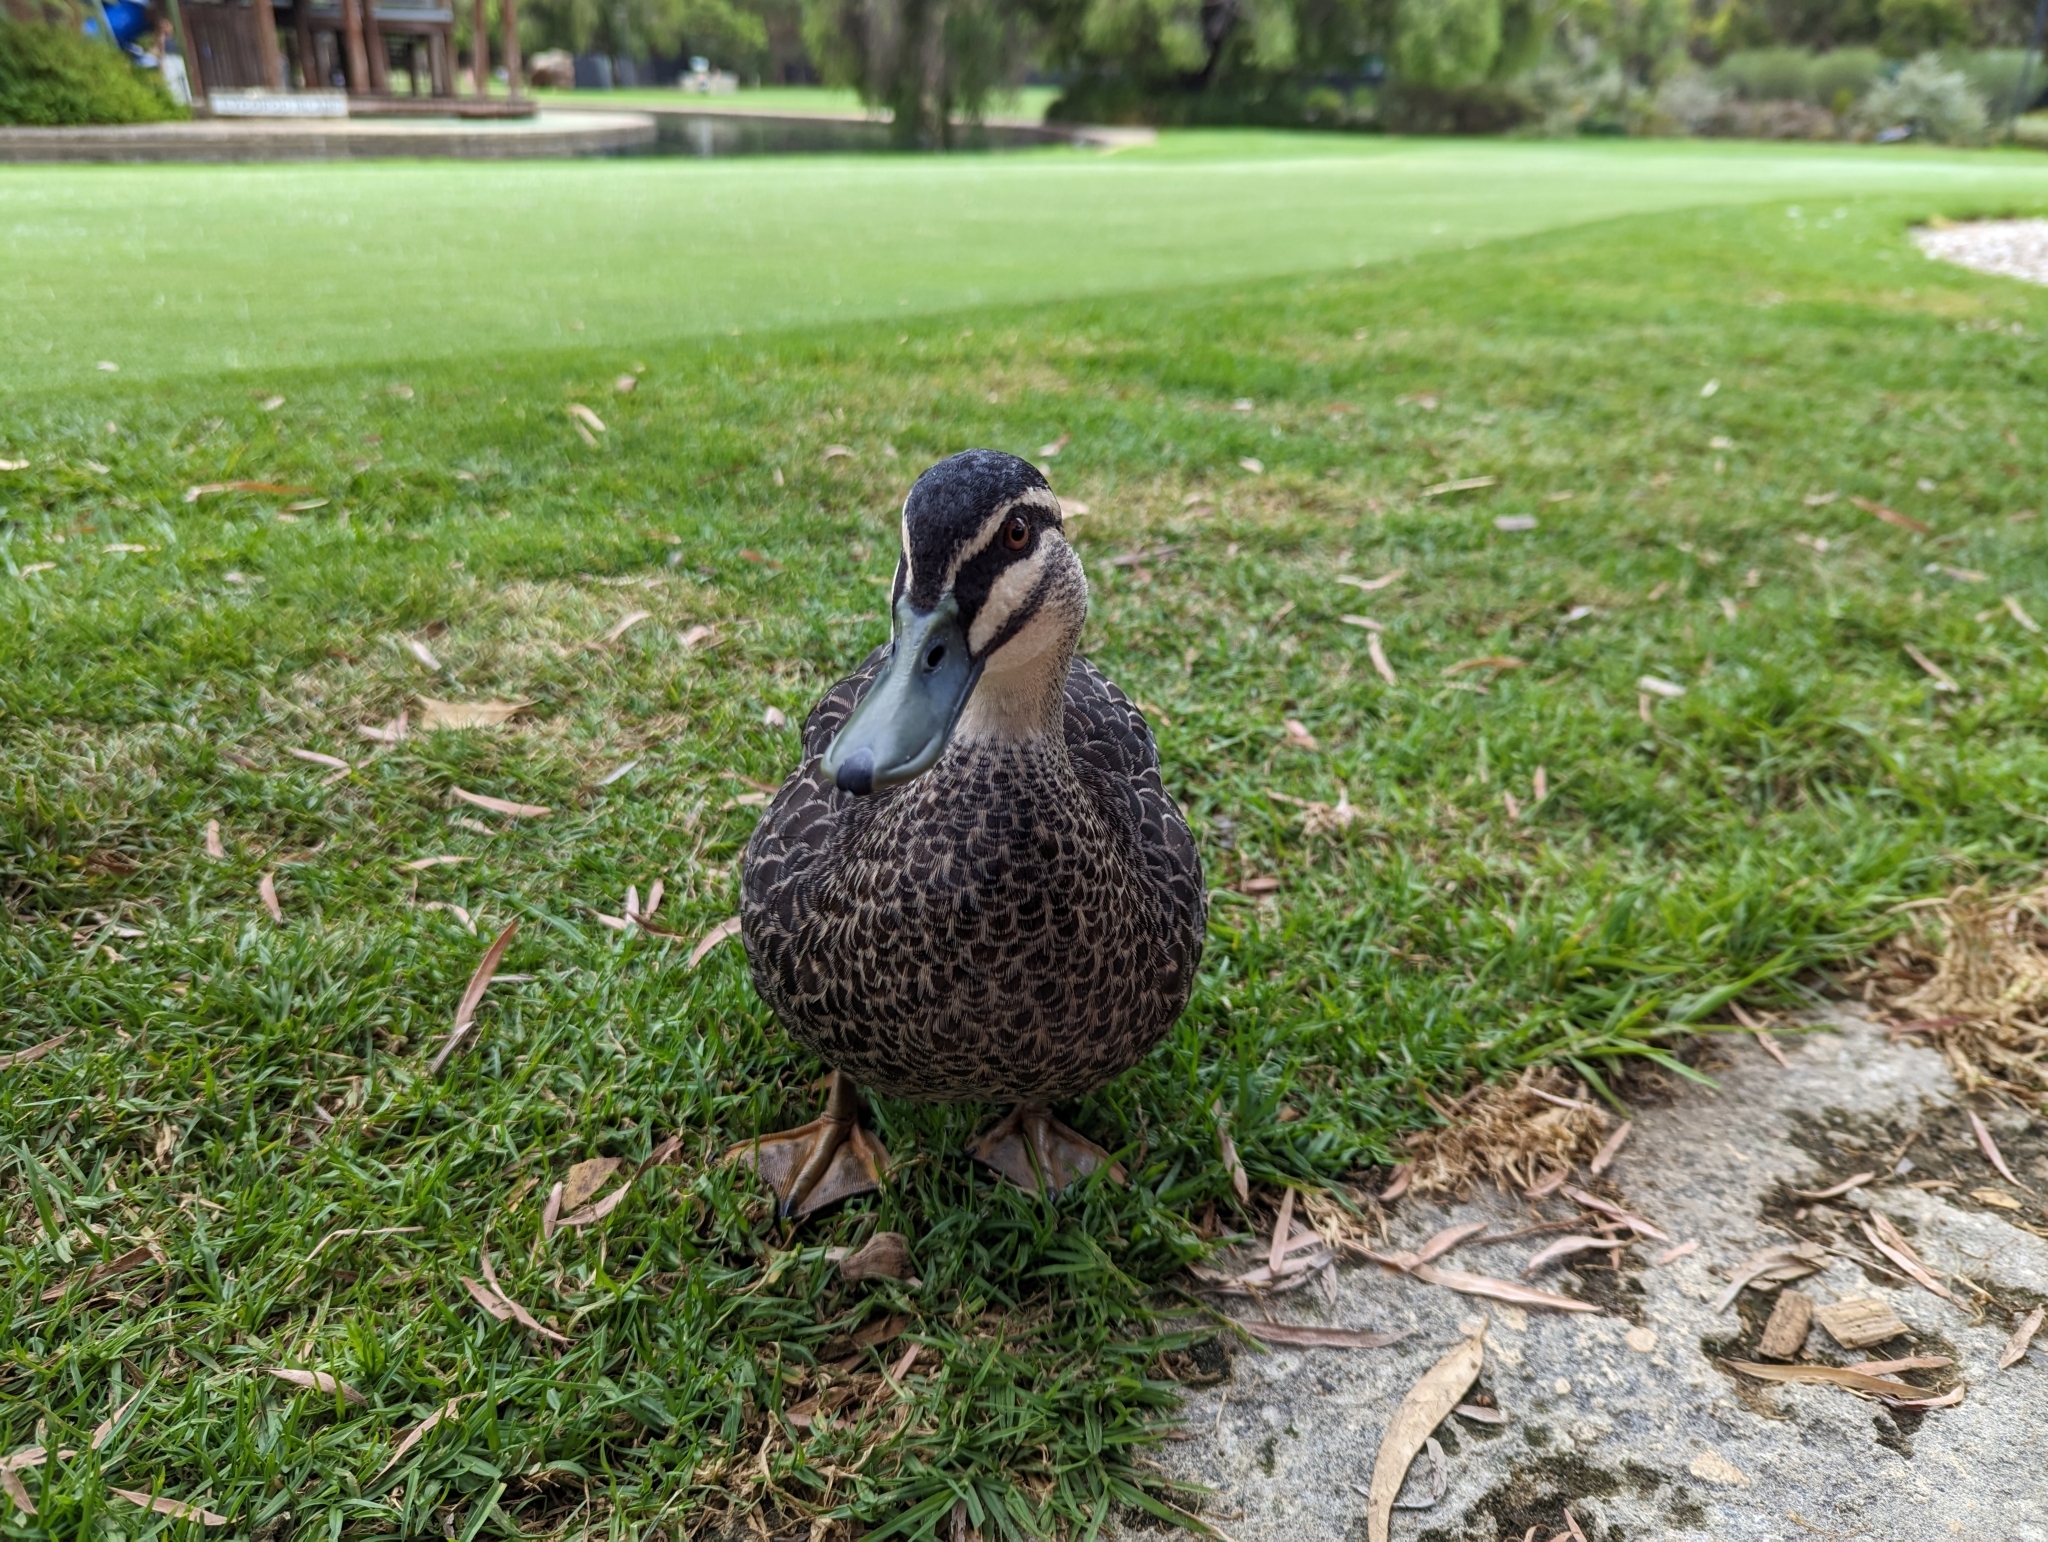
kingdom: Animalia
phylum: Chordata
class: Aves
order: Anseriformes
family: Anatidae
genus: Anas
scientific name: Anas superciliosa
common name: Pacific black duck
